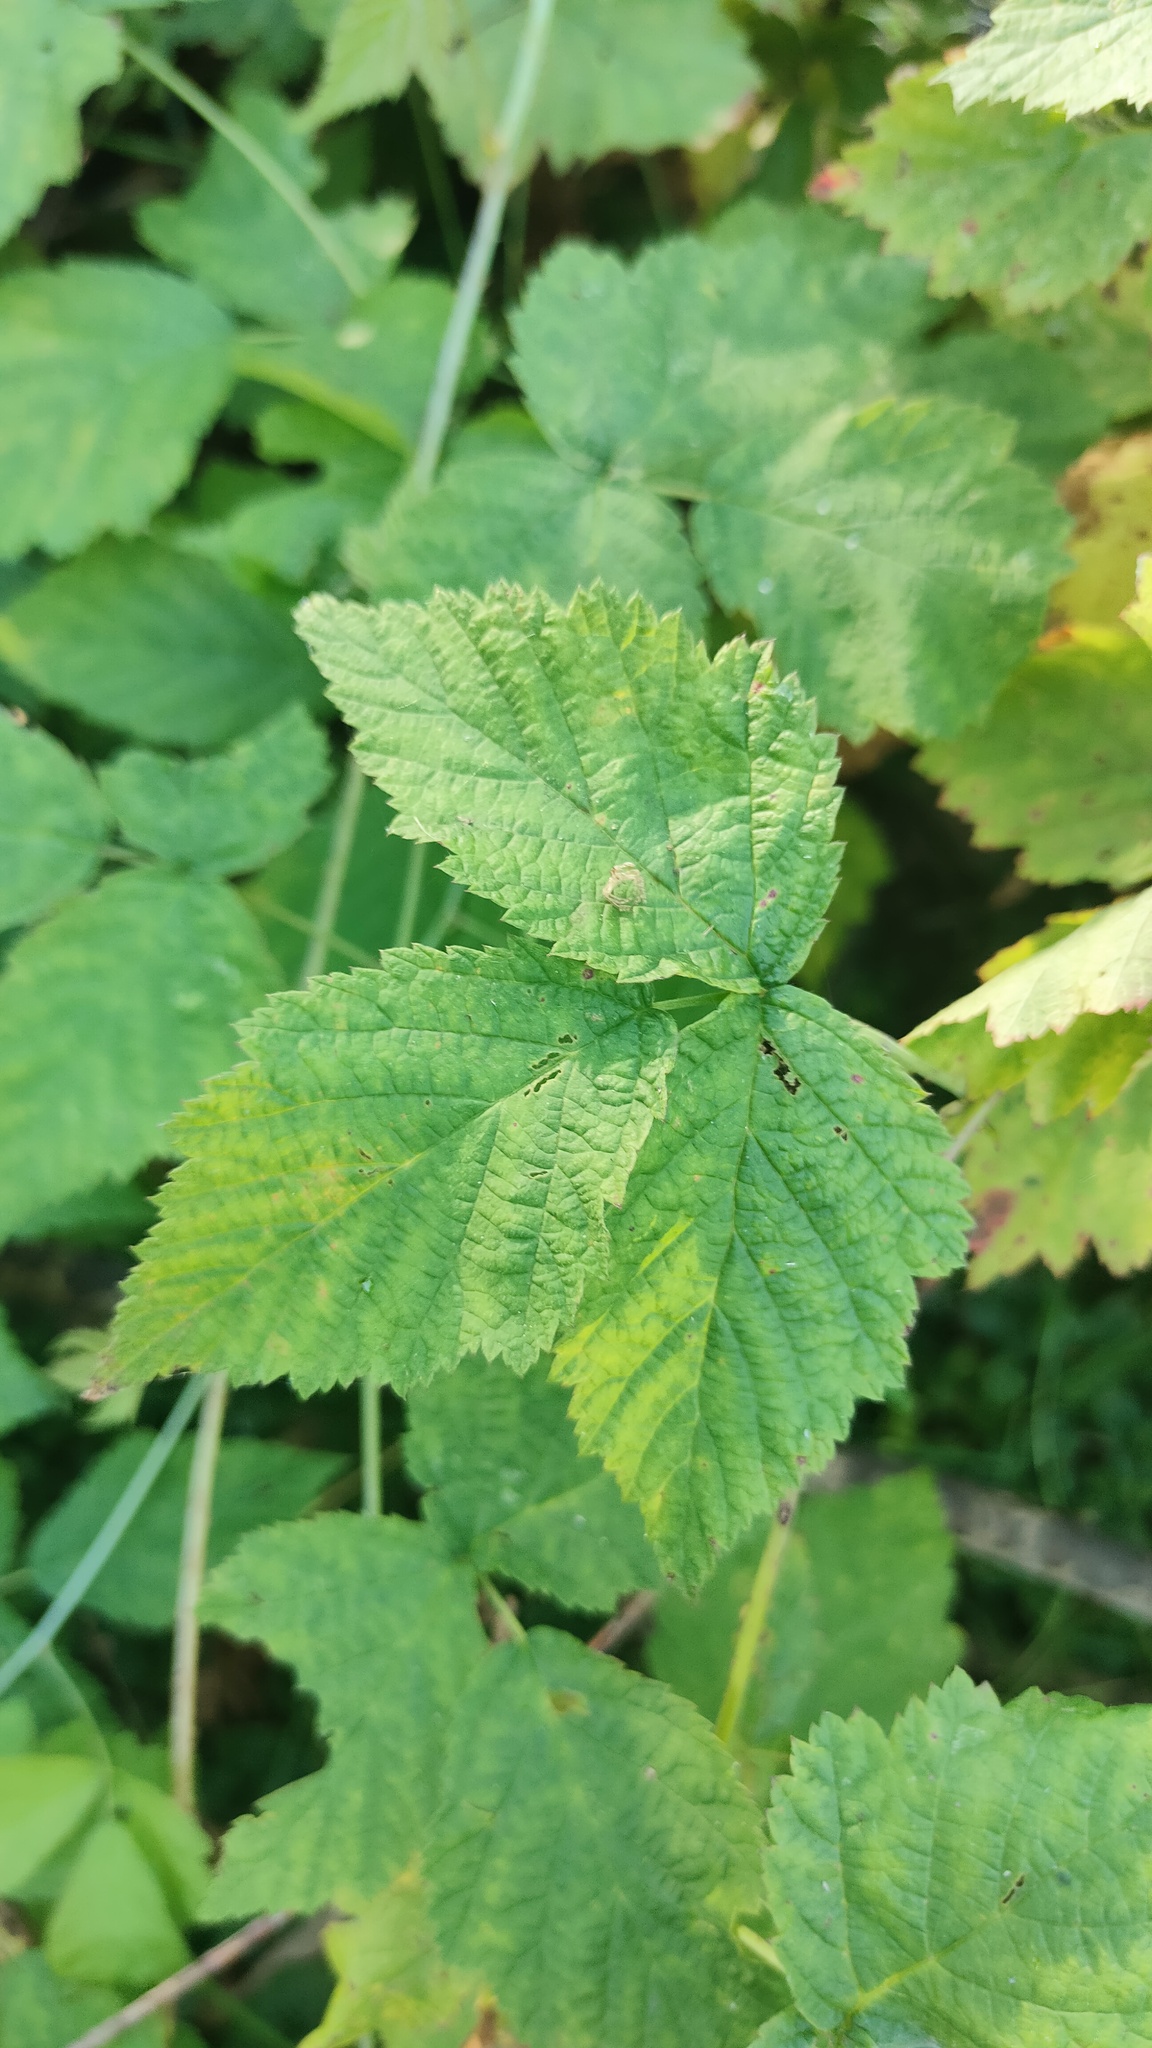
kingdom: Plantae
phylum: Tracheophyta
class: Magnoliopsida
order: Rosales
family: Rosaceae
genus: Rubus
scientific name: Rubus caesius
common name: Dewberry
